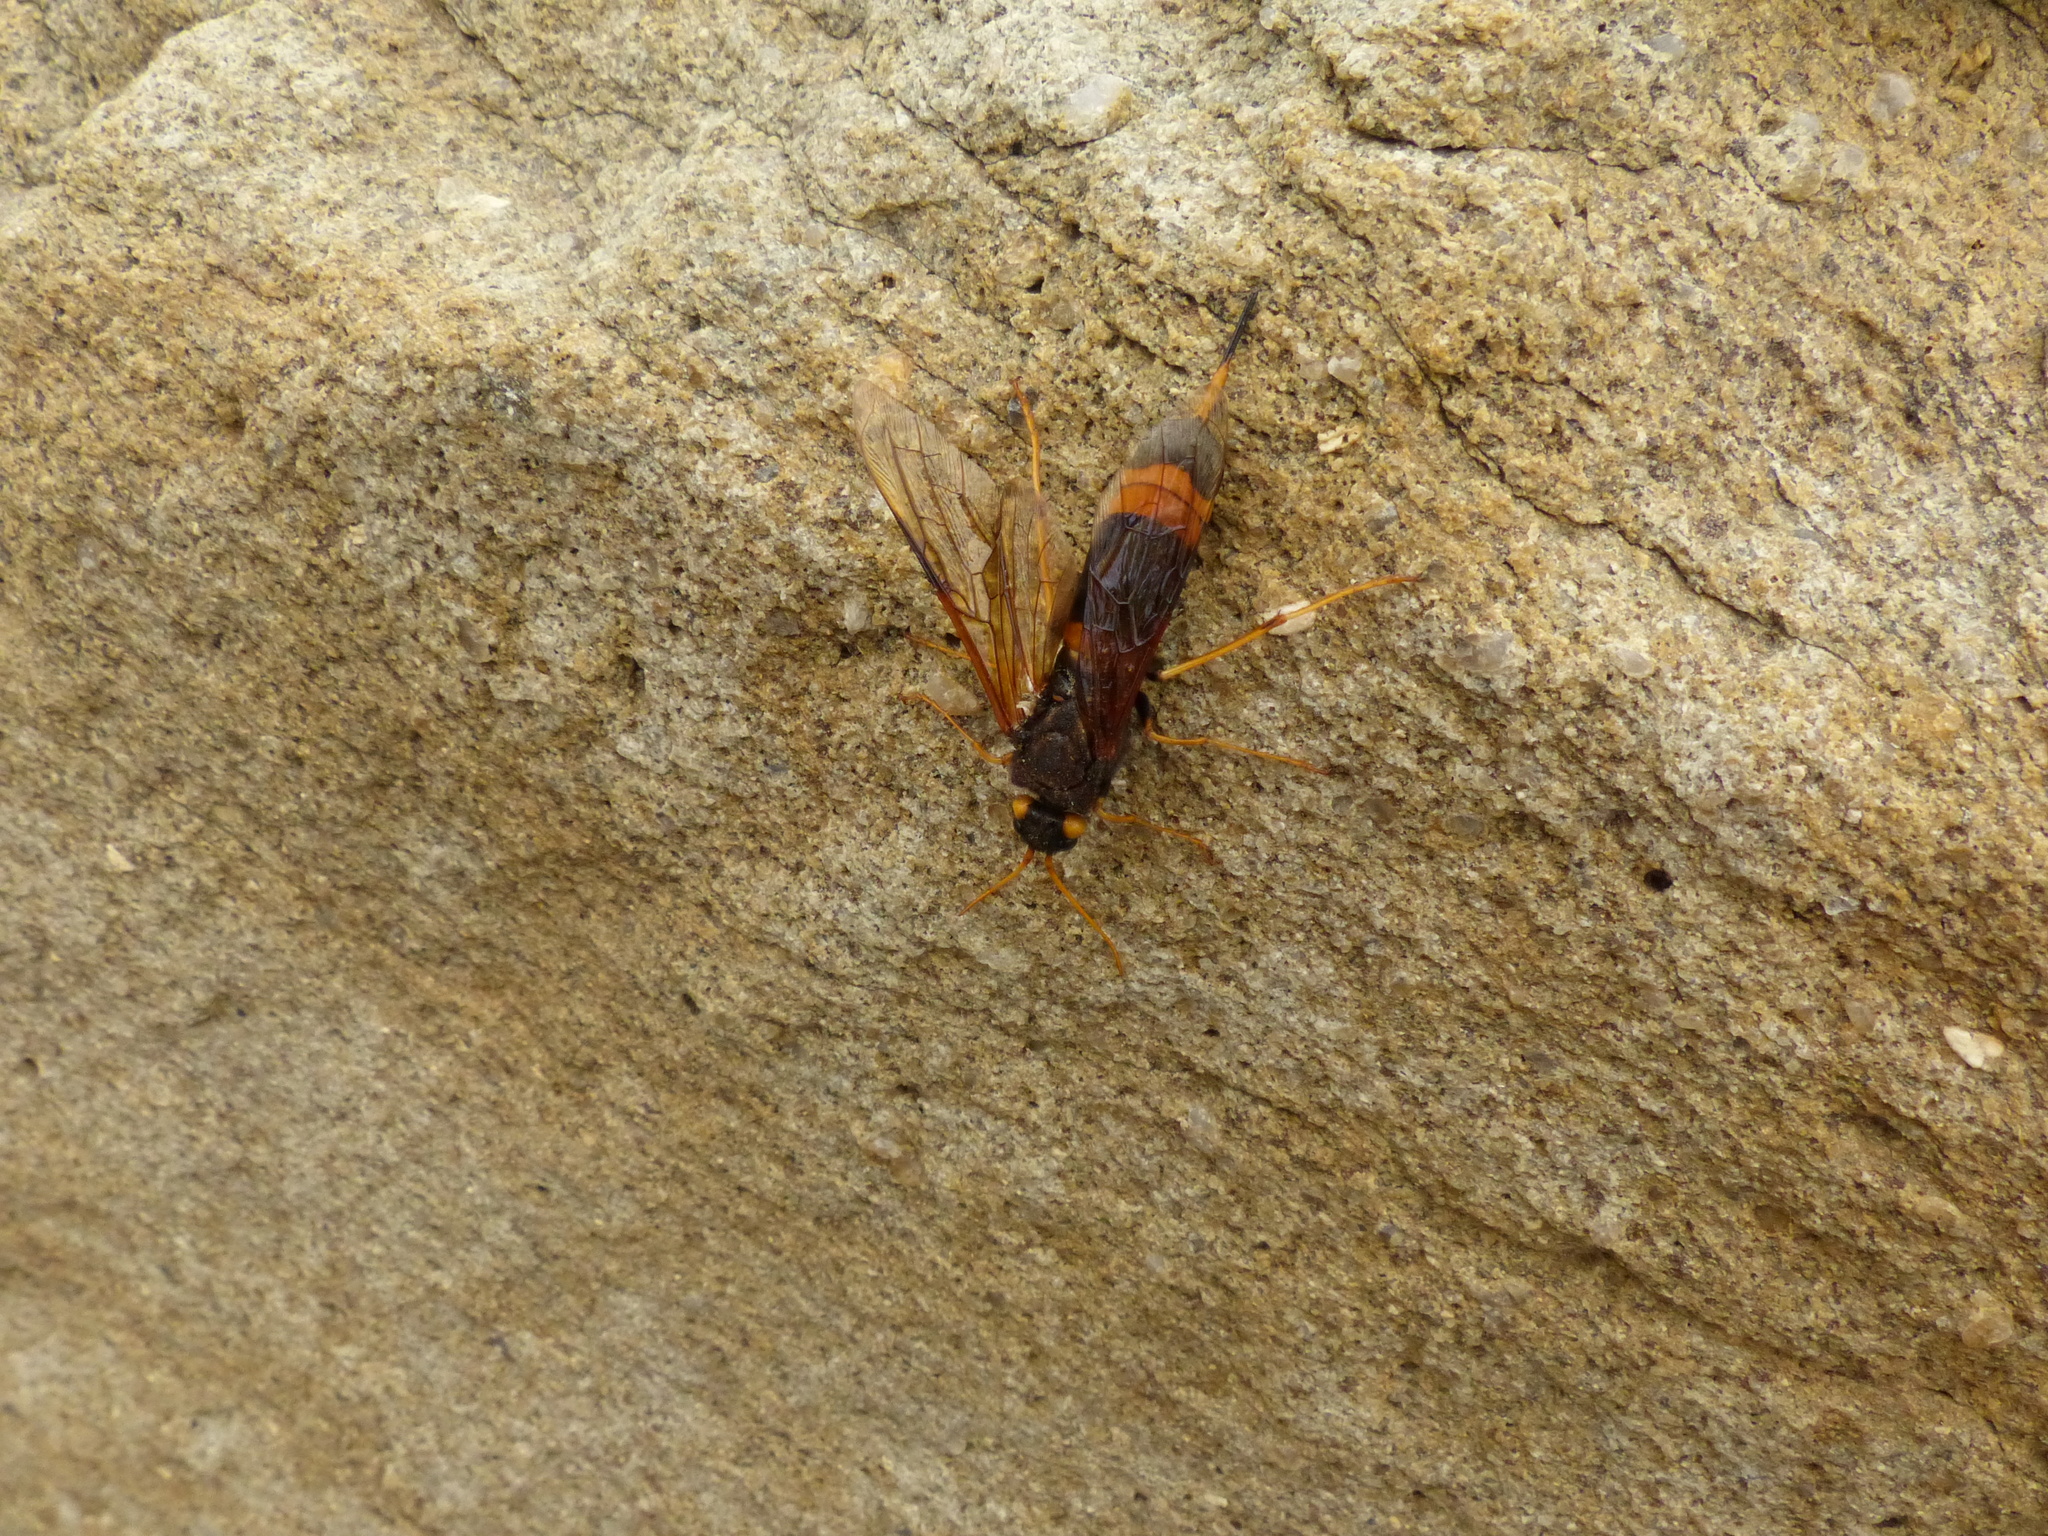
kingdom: Animalia
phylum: Arthropoda
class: Insecta
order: Hymenoptera
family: Siricidae
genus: Urocerus
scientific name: Urocerus flavicornis
